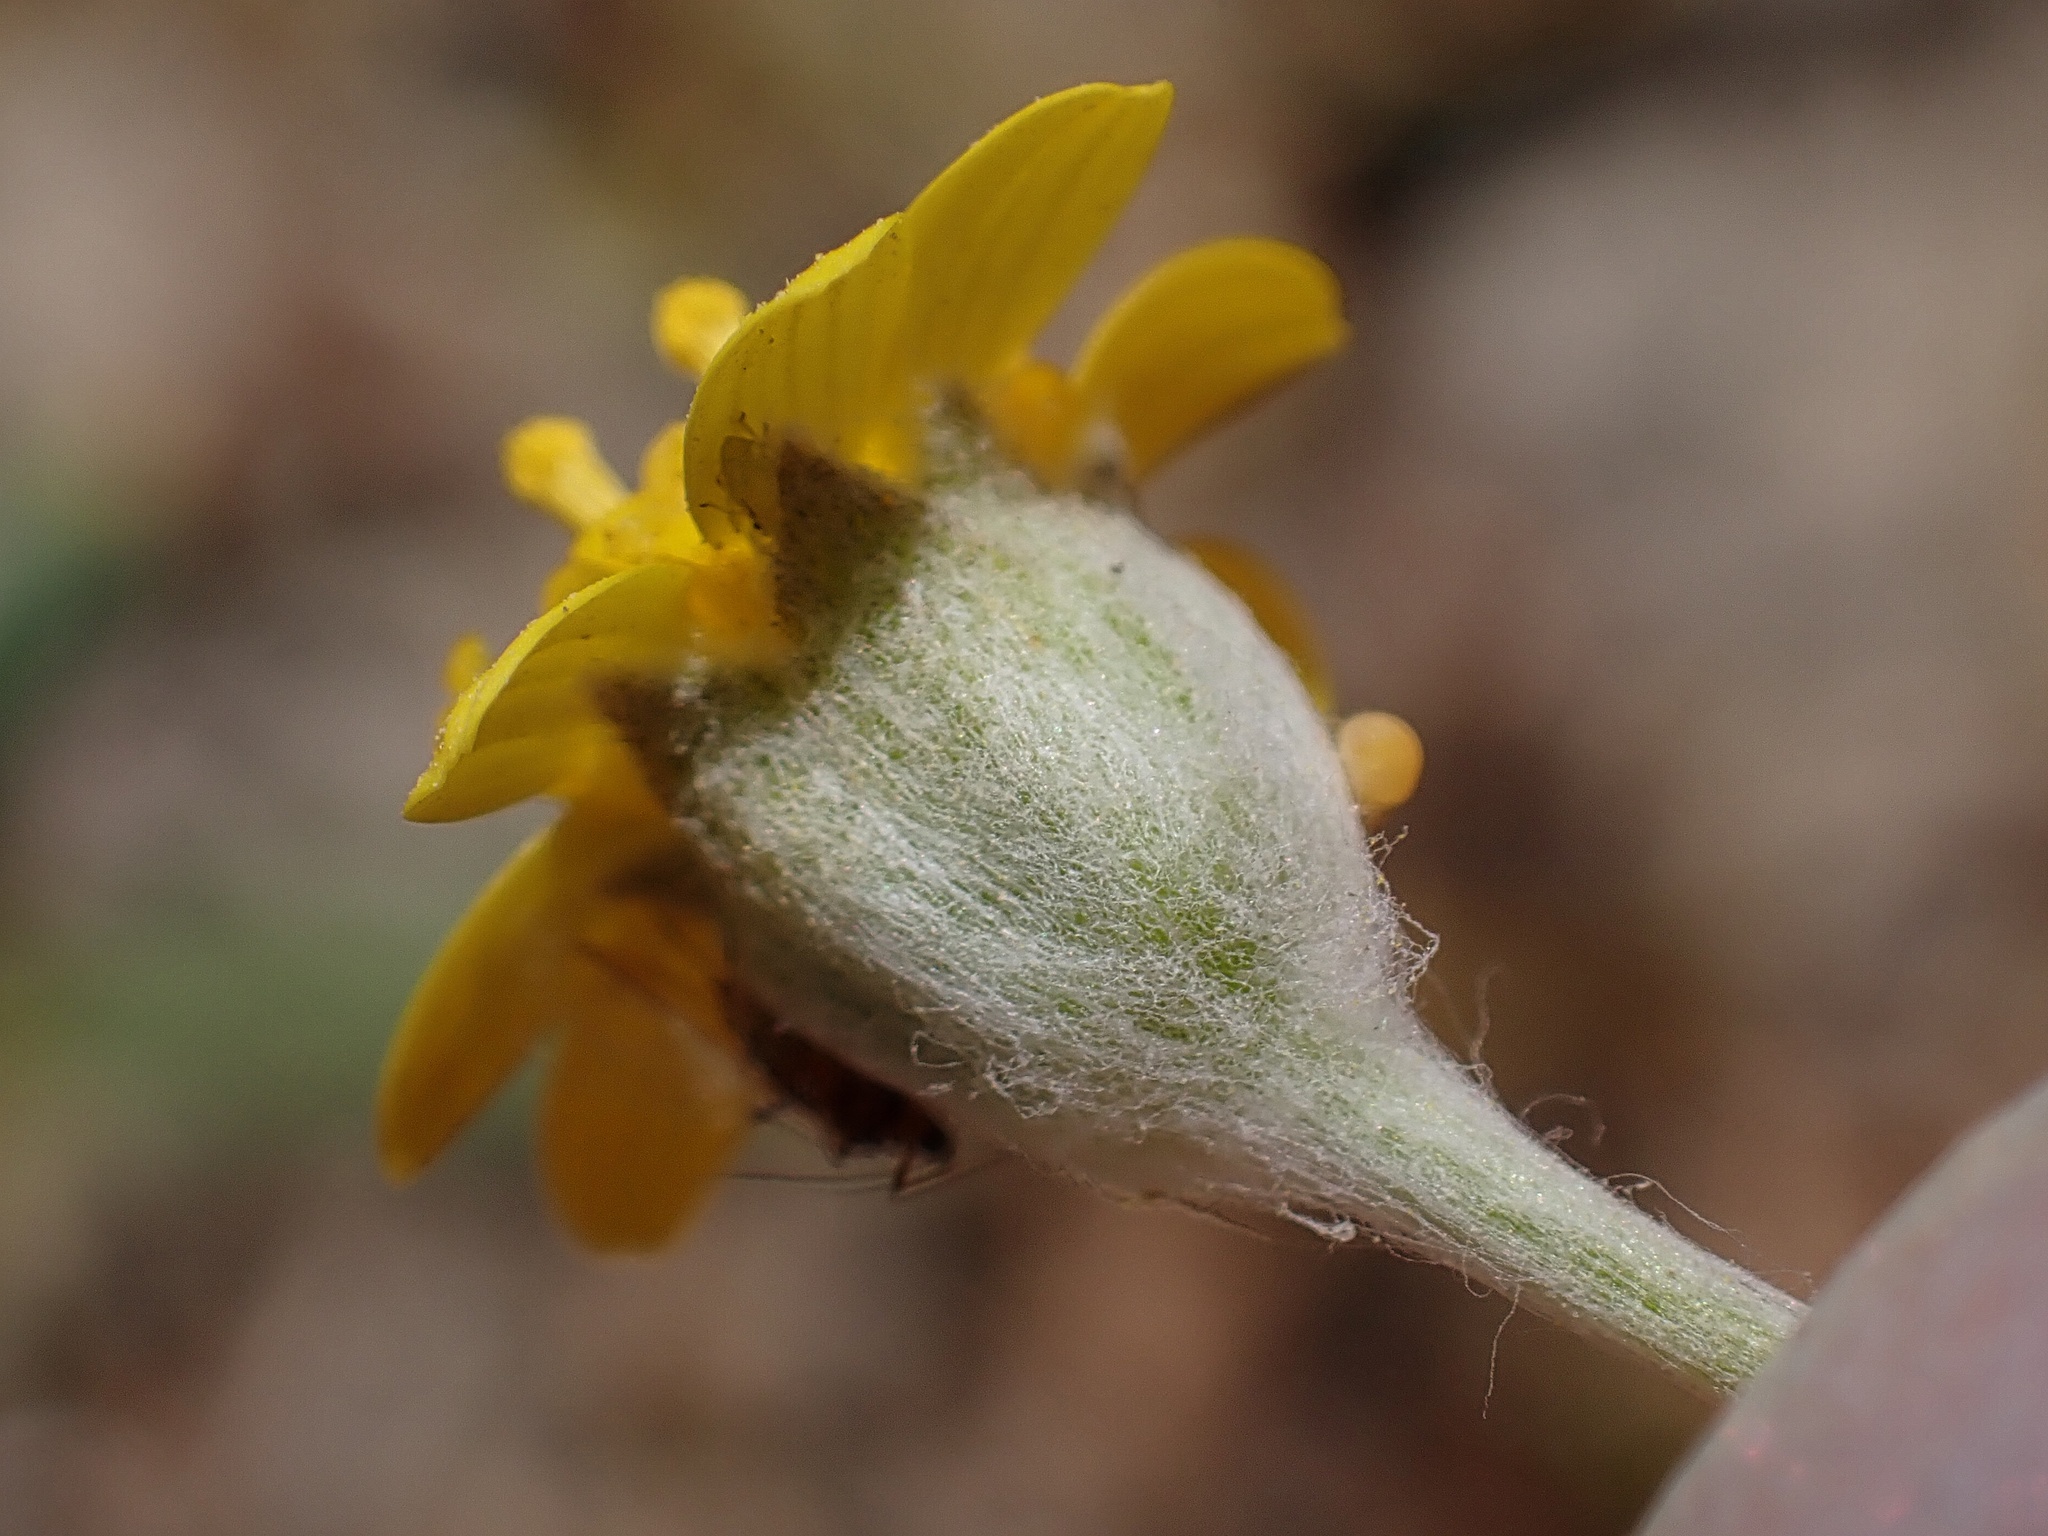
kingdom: Plantae
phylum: Tracheophyta
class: Magnoliopsida
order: Asterales
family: Asteraceae
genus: Monolopia
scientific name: Monolopia stricta
